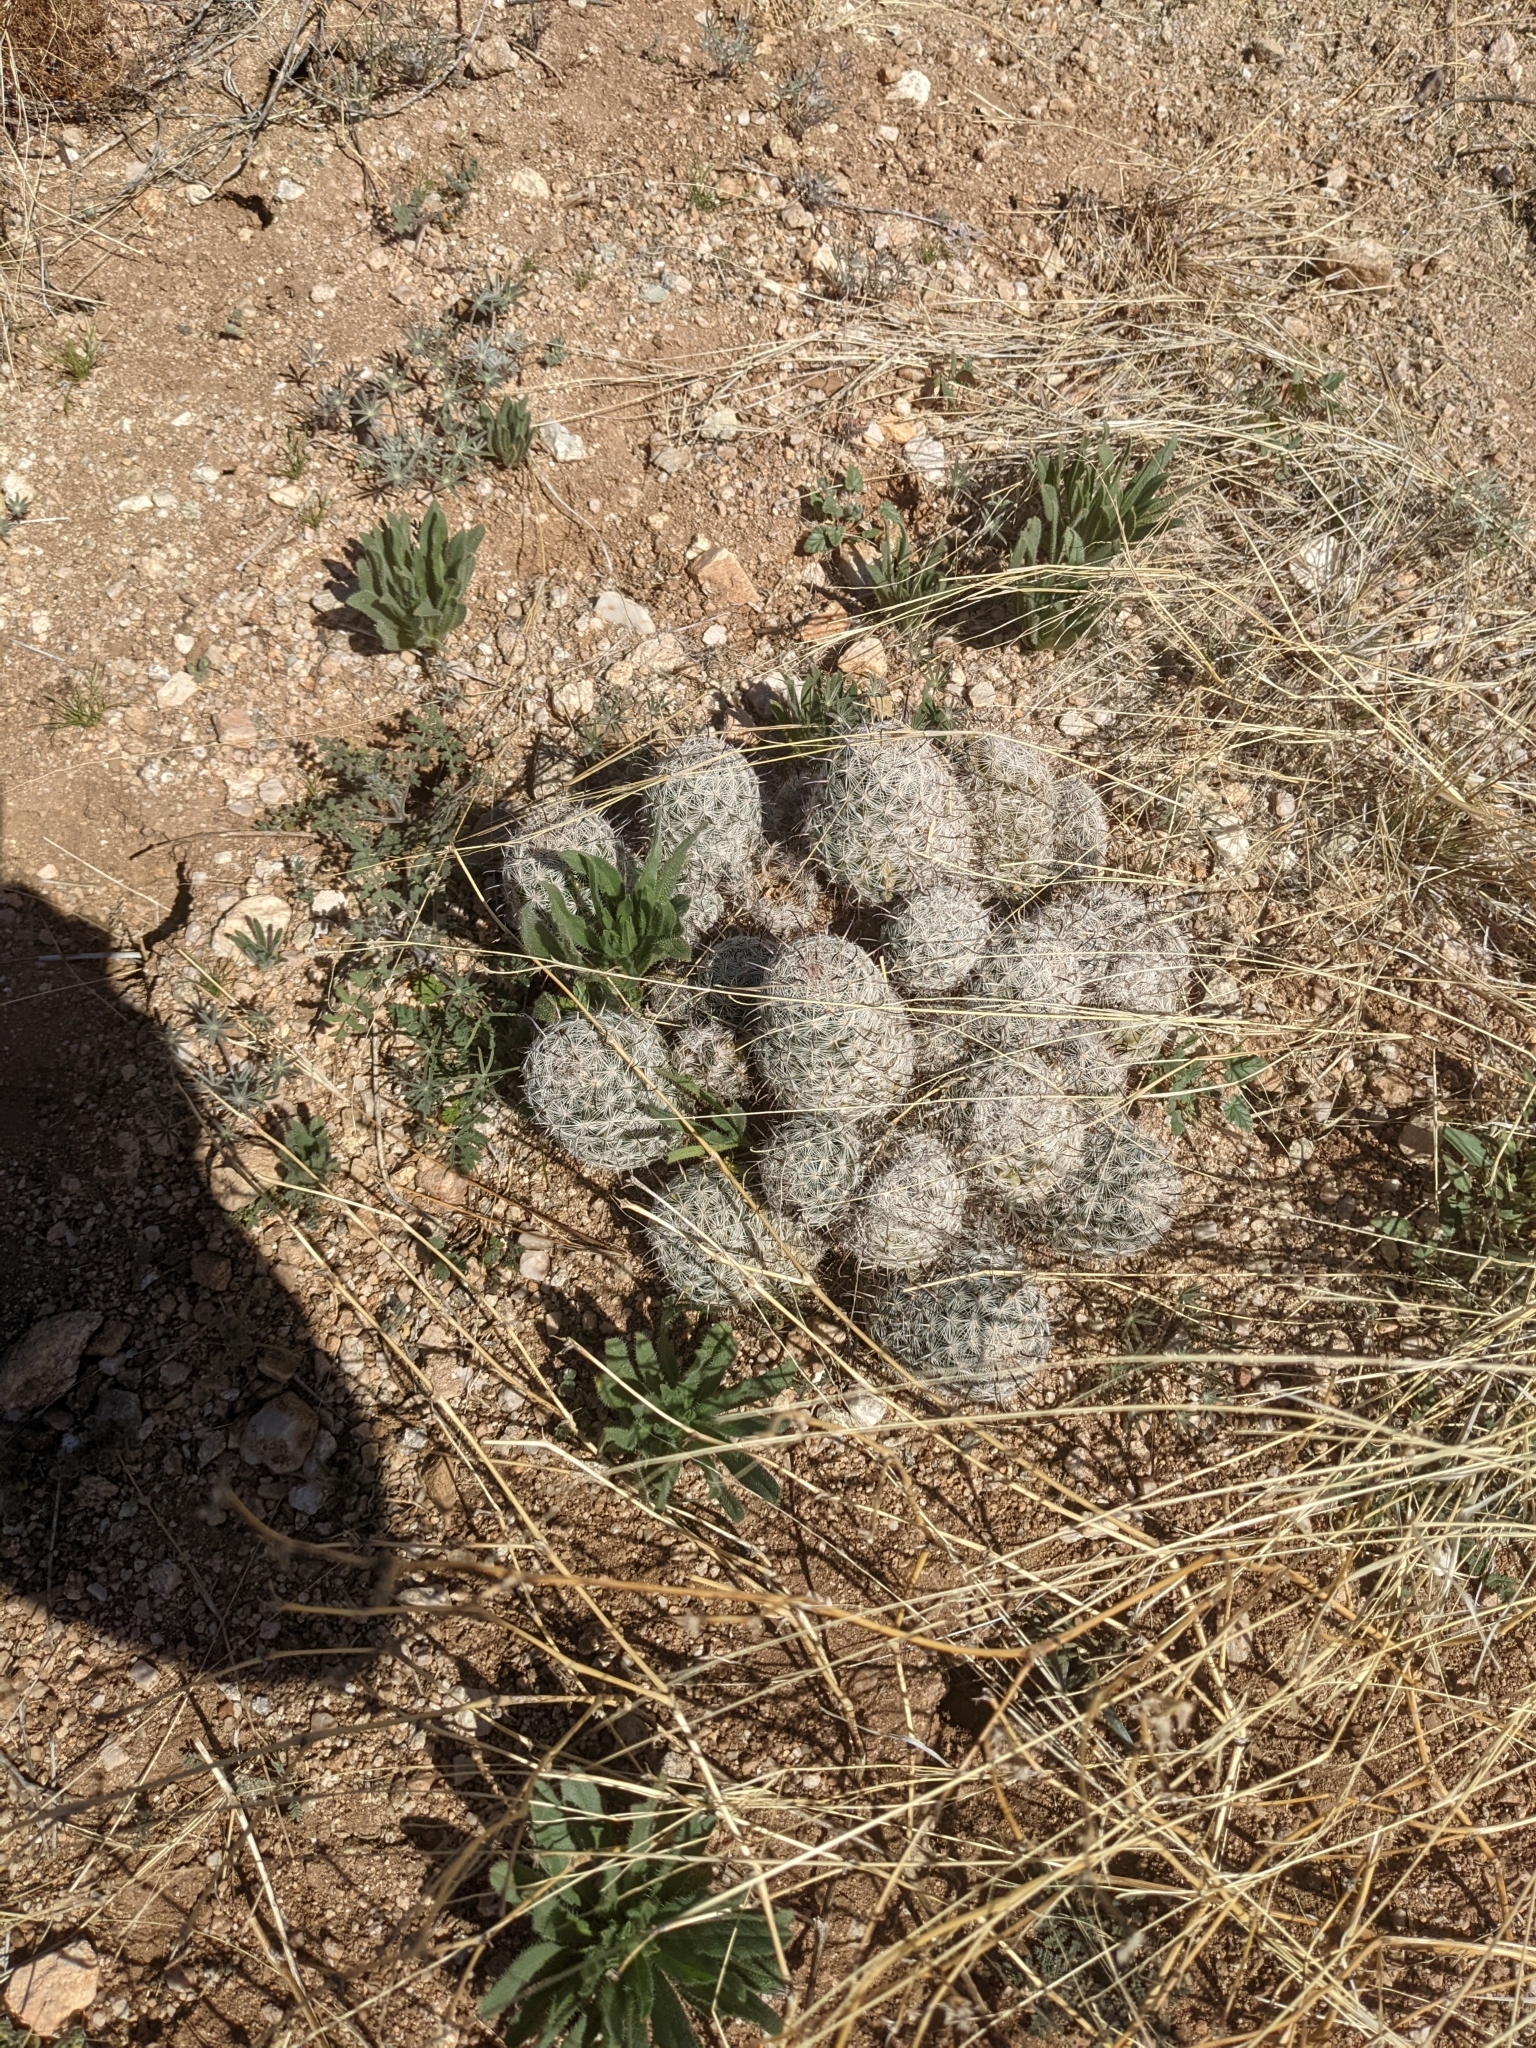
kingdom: Plantae
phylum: Tracheophyta
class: Magnoliopsida
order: Caryophyllales
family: Cactaceae
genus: Cochemiea
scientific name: Cochemiea grahamii
